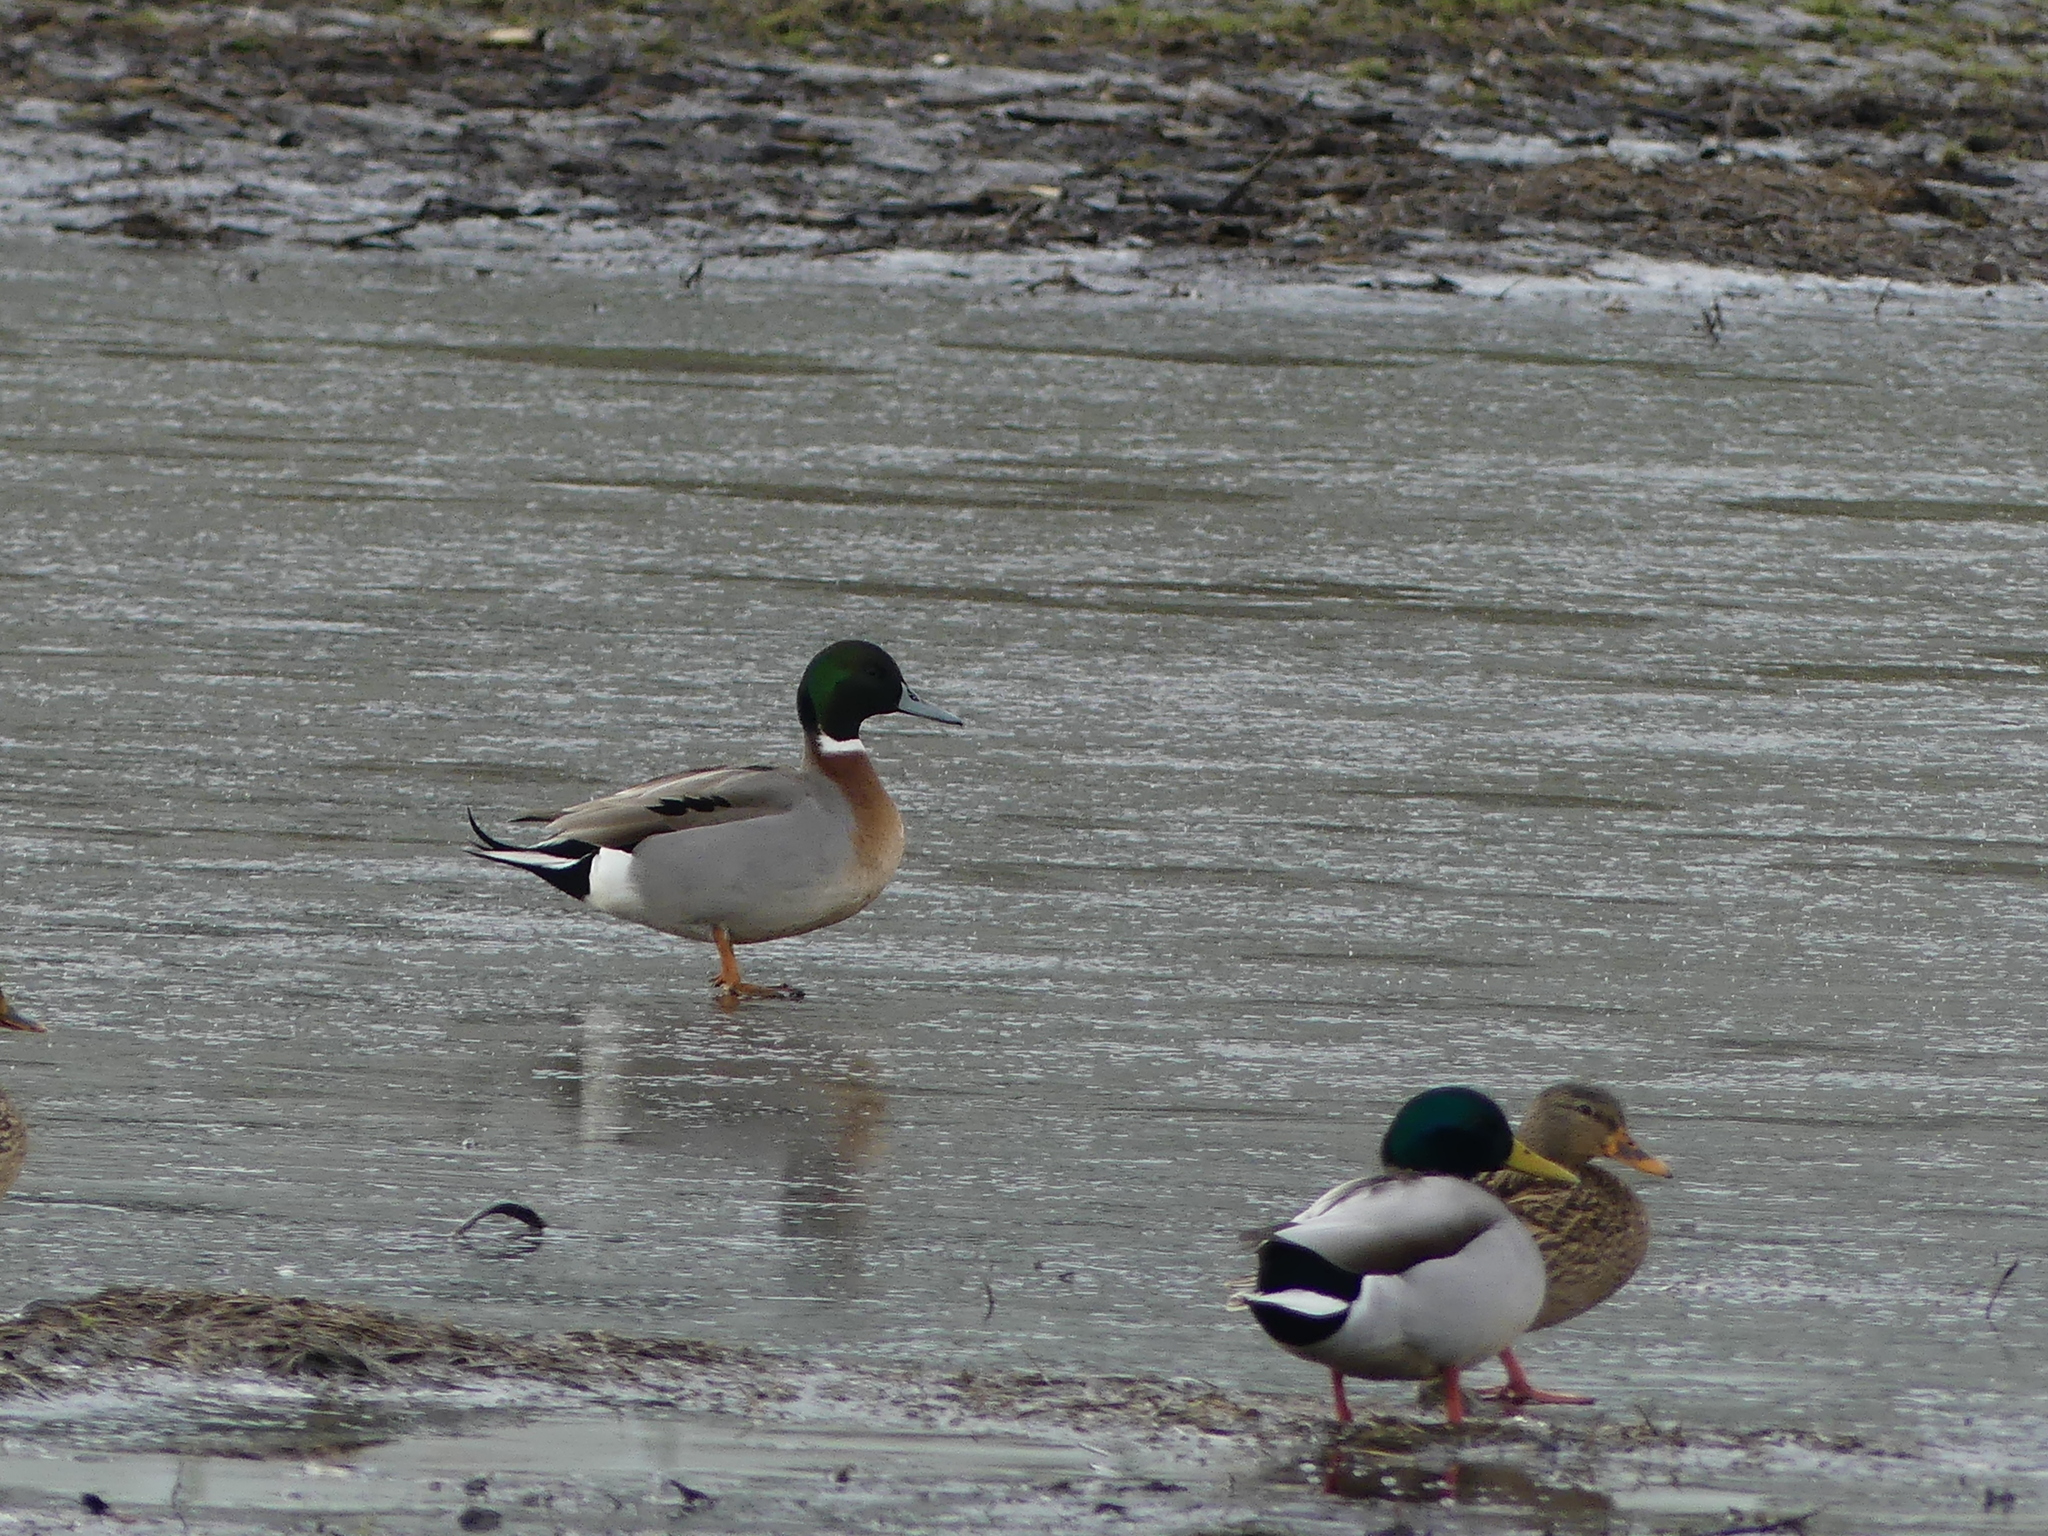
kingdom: Animalia
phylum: Chordata
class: Aves
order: Anseriformes
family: Anatidae
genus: Anas
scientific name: Anas
